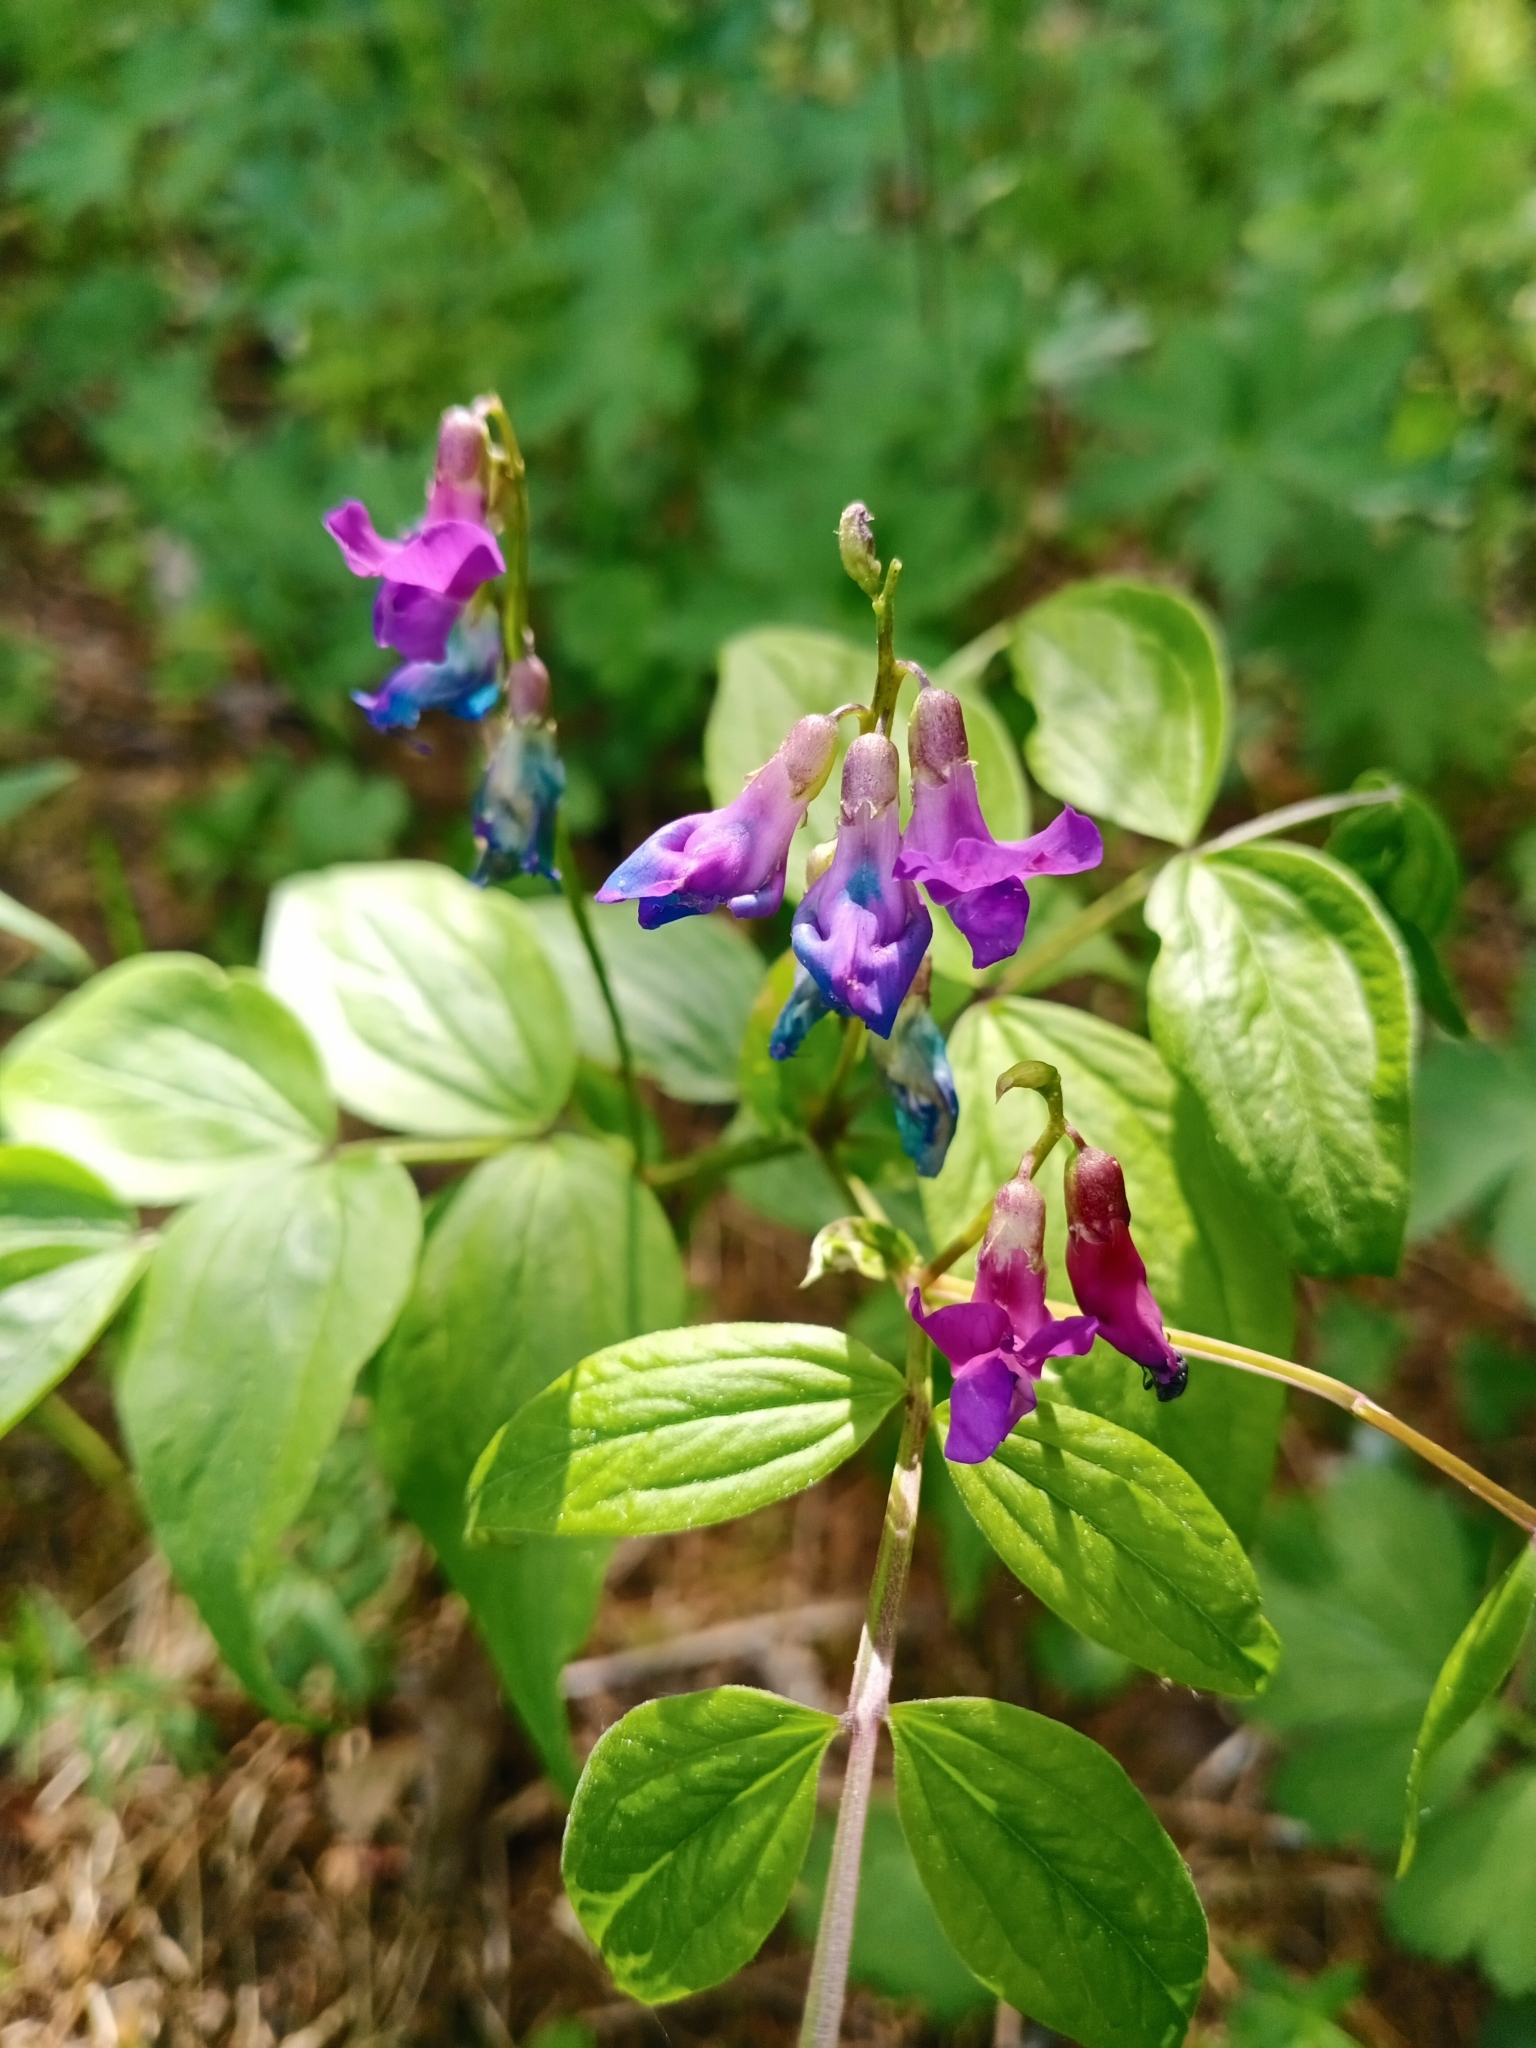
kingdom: Plantae
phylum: Tracheophyta
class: Magnoliopsida
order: Fabales
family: Fabaceae
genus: Lathyrus
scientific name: Lathyrus vernus
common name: Spring pea
